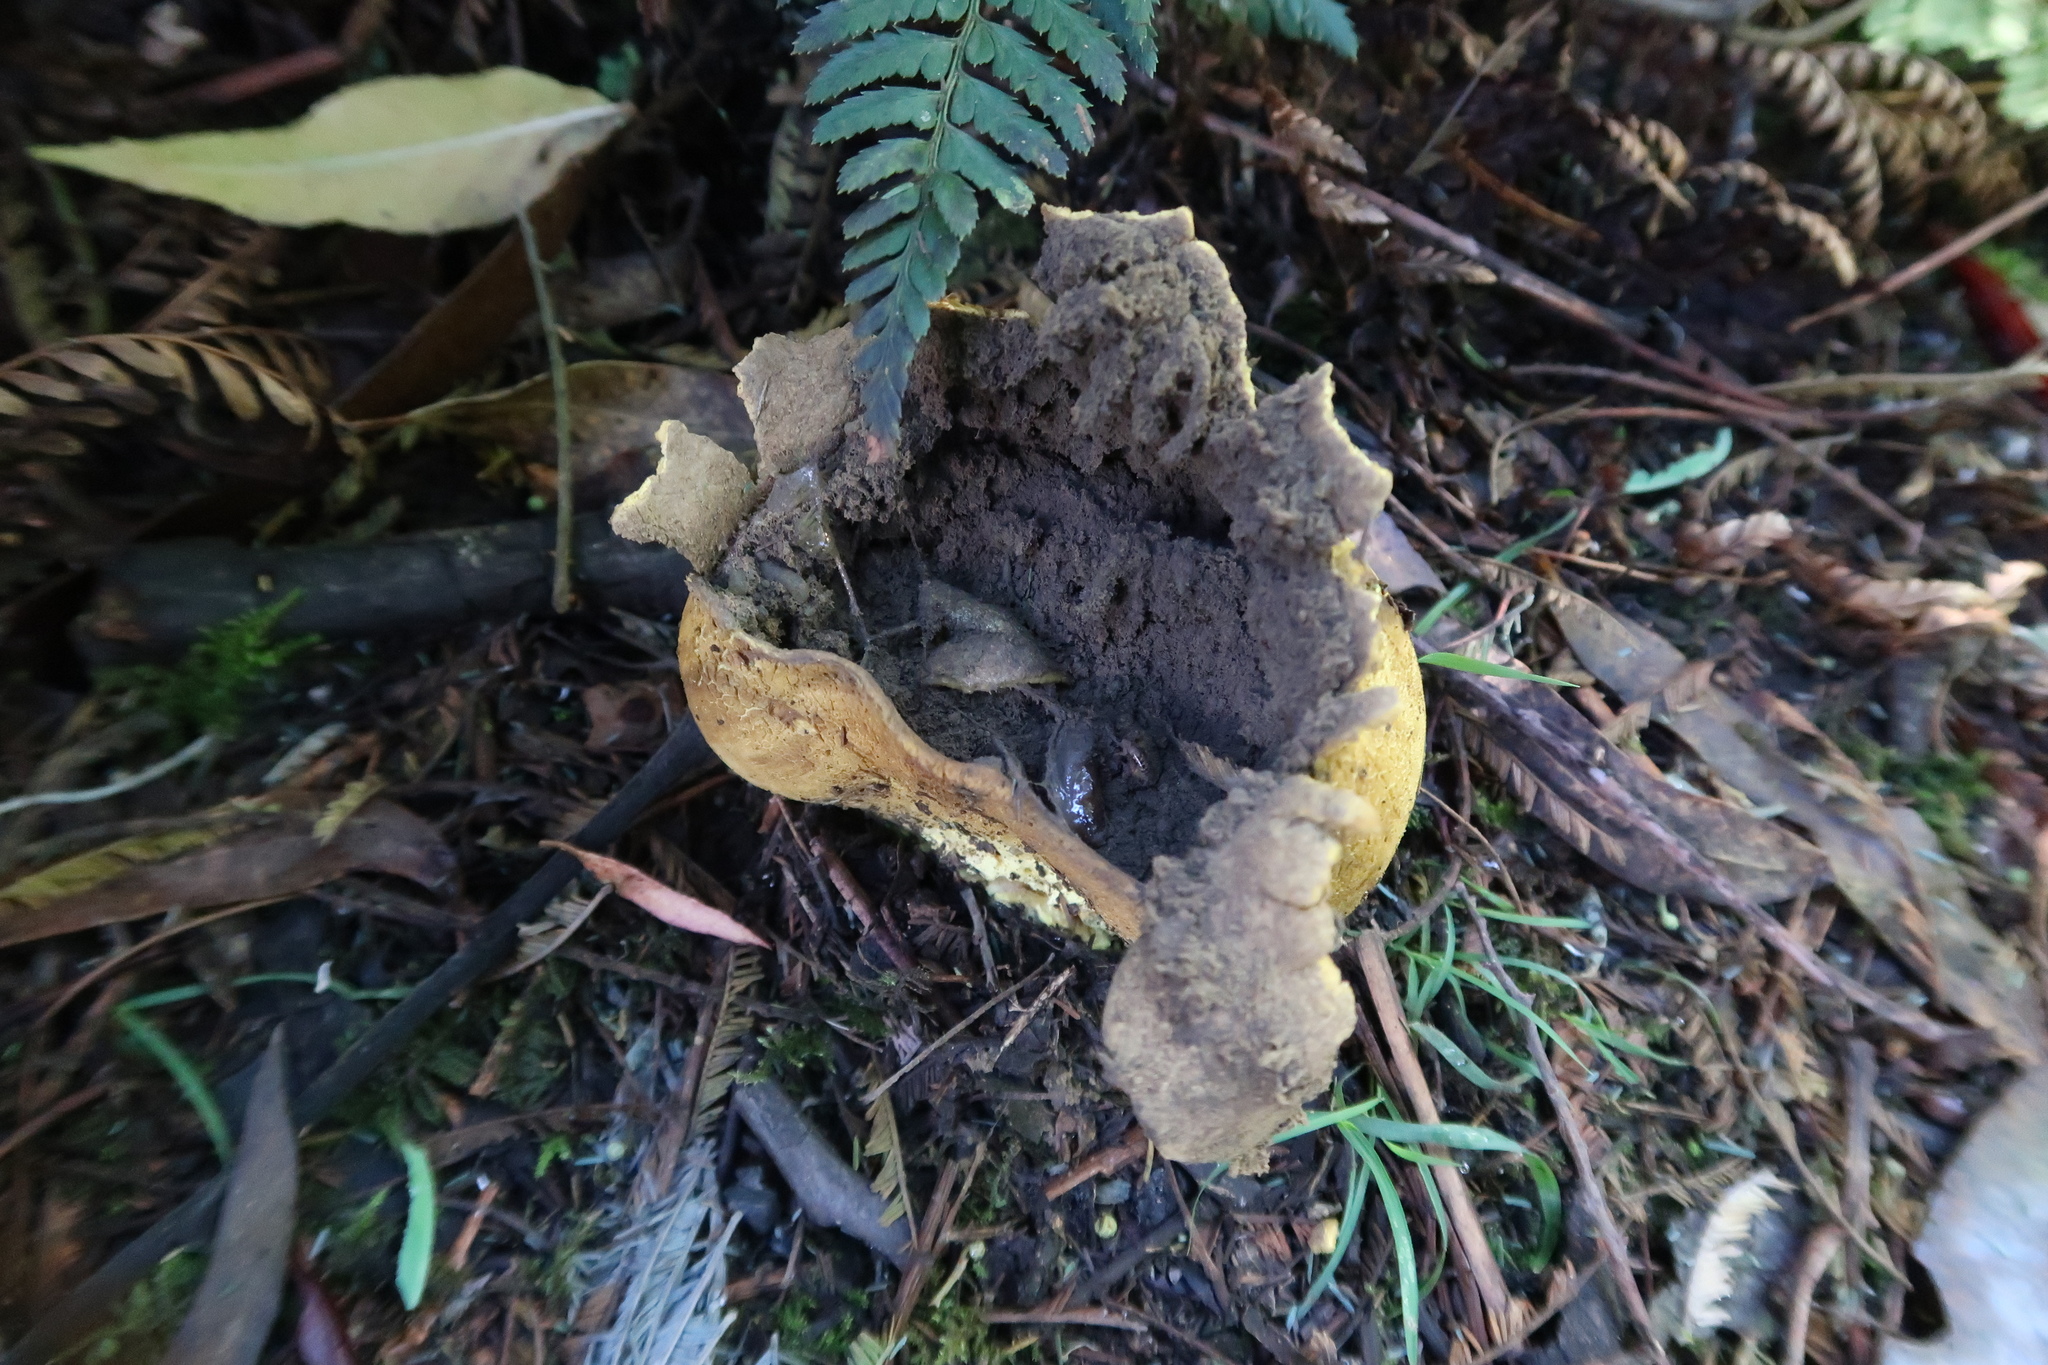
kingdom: Fungi
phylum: Basidiomycota
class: Agaricomycetes
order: Boletales
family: Sclerodermataceae
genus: Scleroderma
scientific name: Scleroderma cepa
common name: Onion earthball
